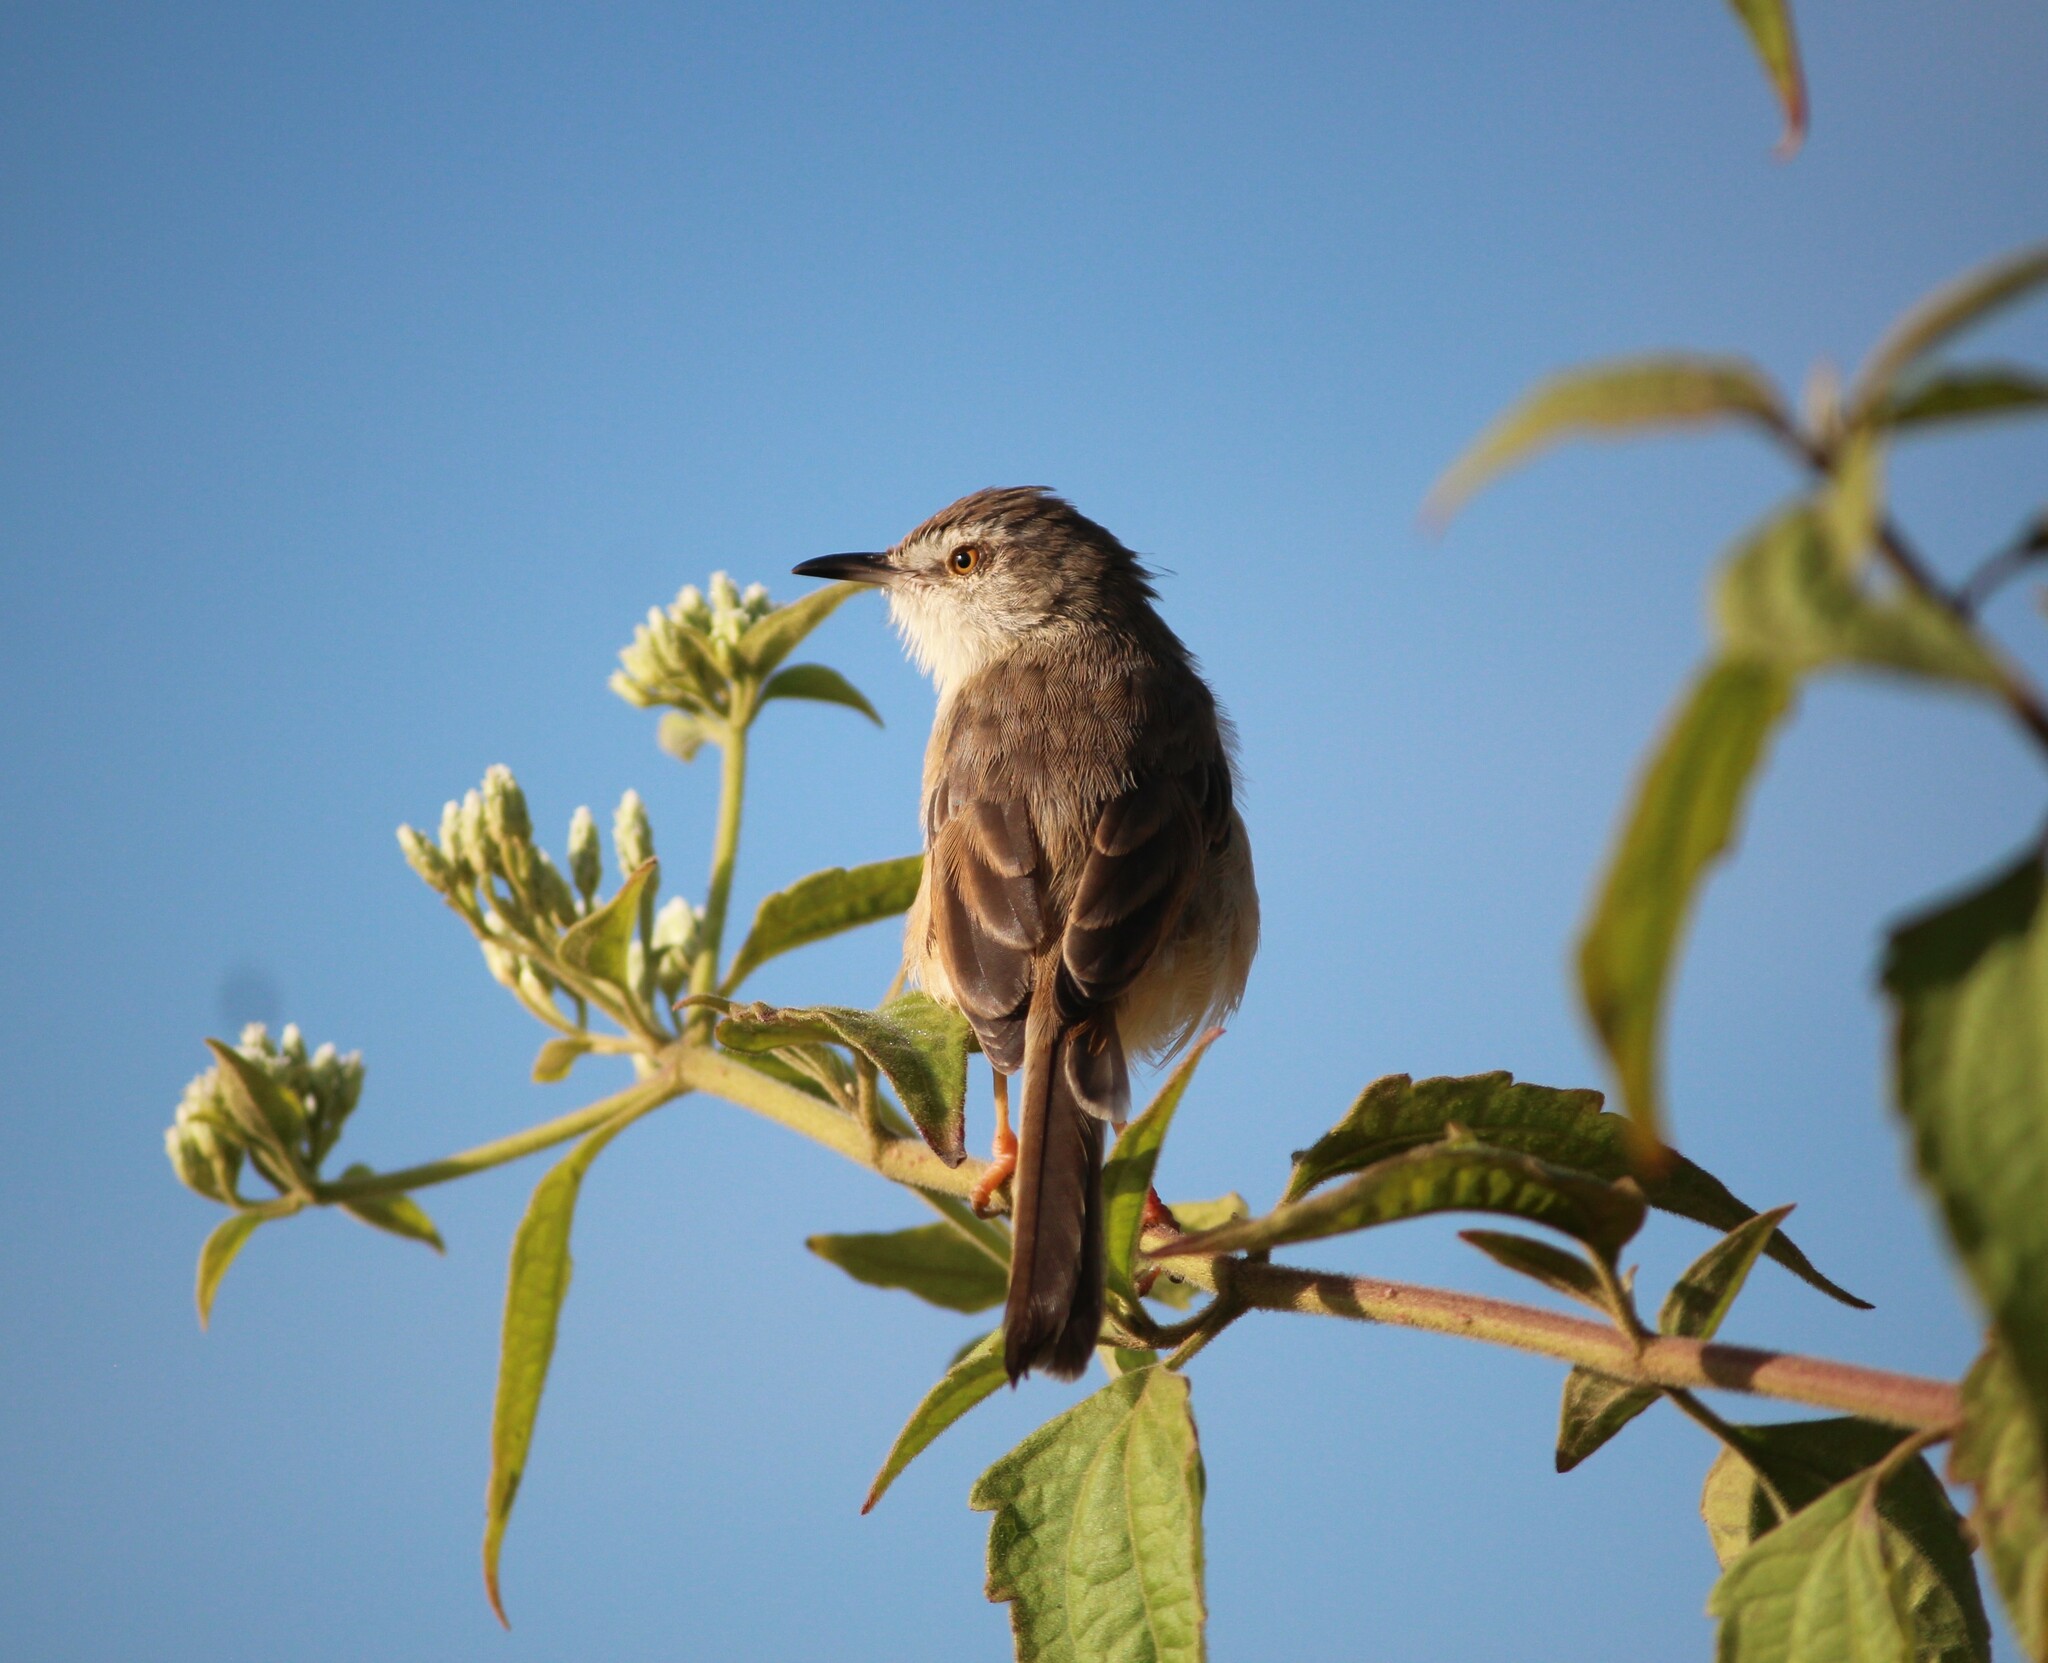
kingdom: Animalia
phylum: Chordata
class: Aves
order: Passeriformes
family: Cisticolidae
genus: Prinia
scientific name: Prinia inornata
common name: Plain prinia
